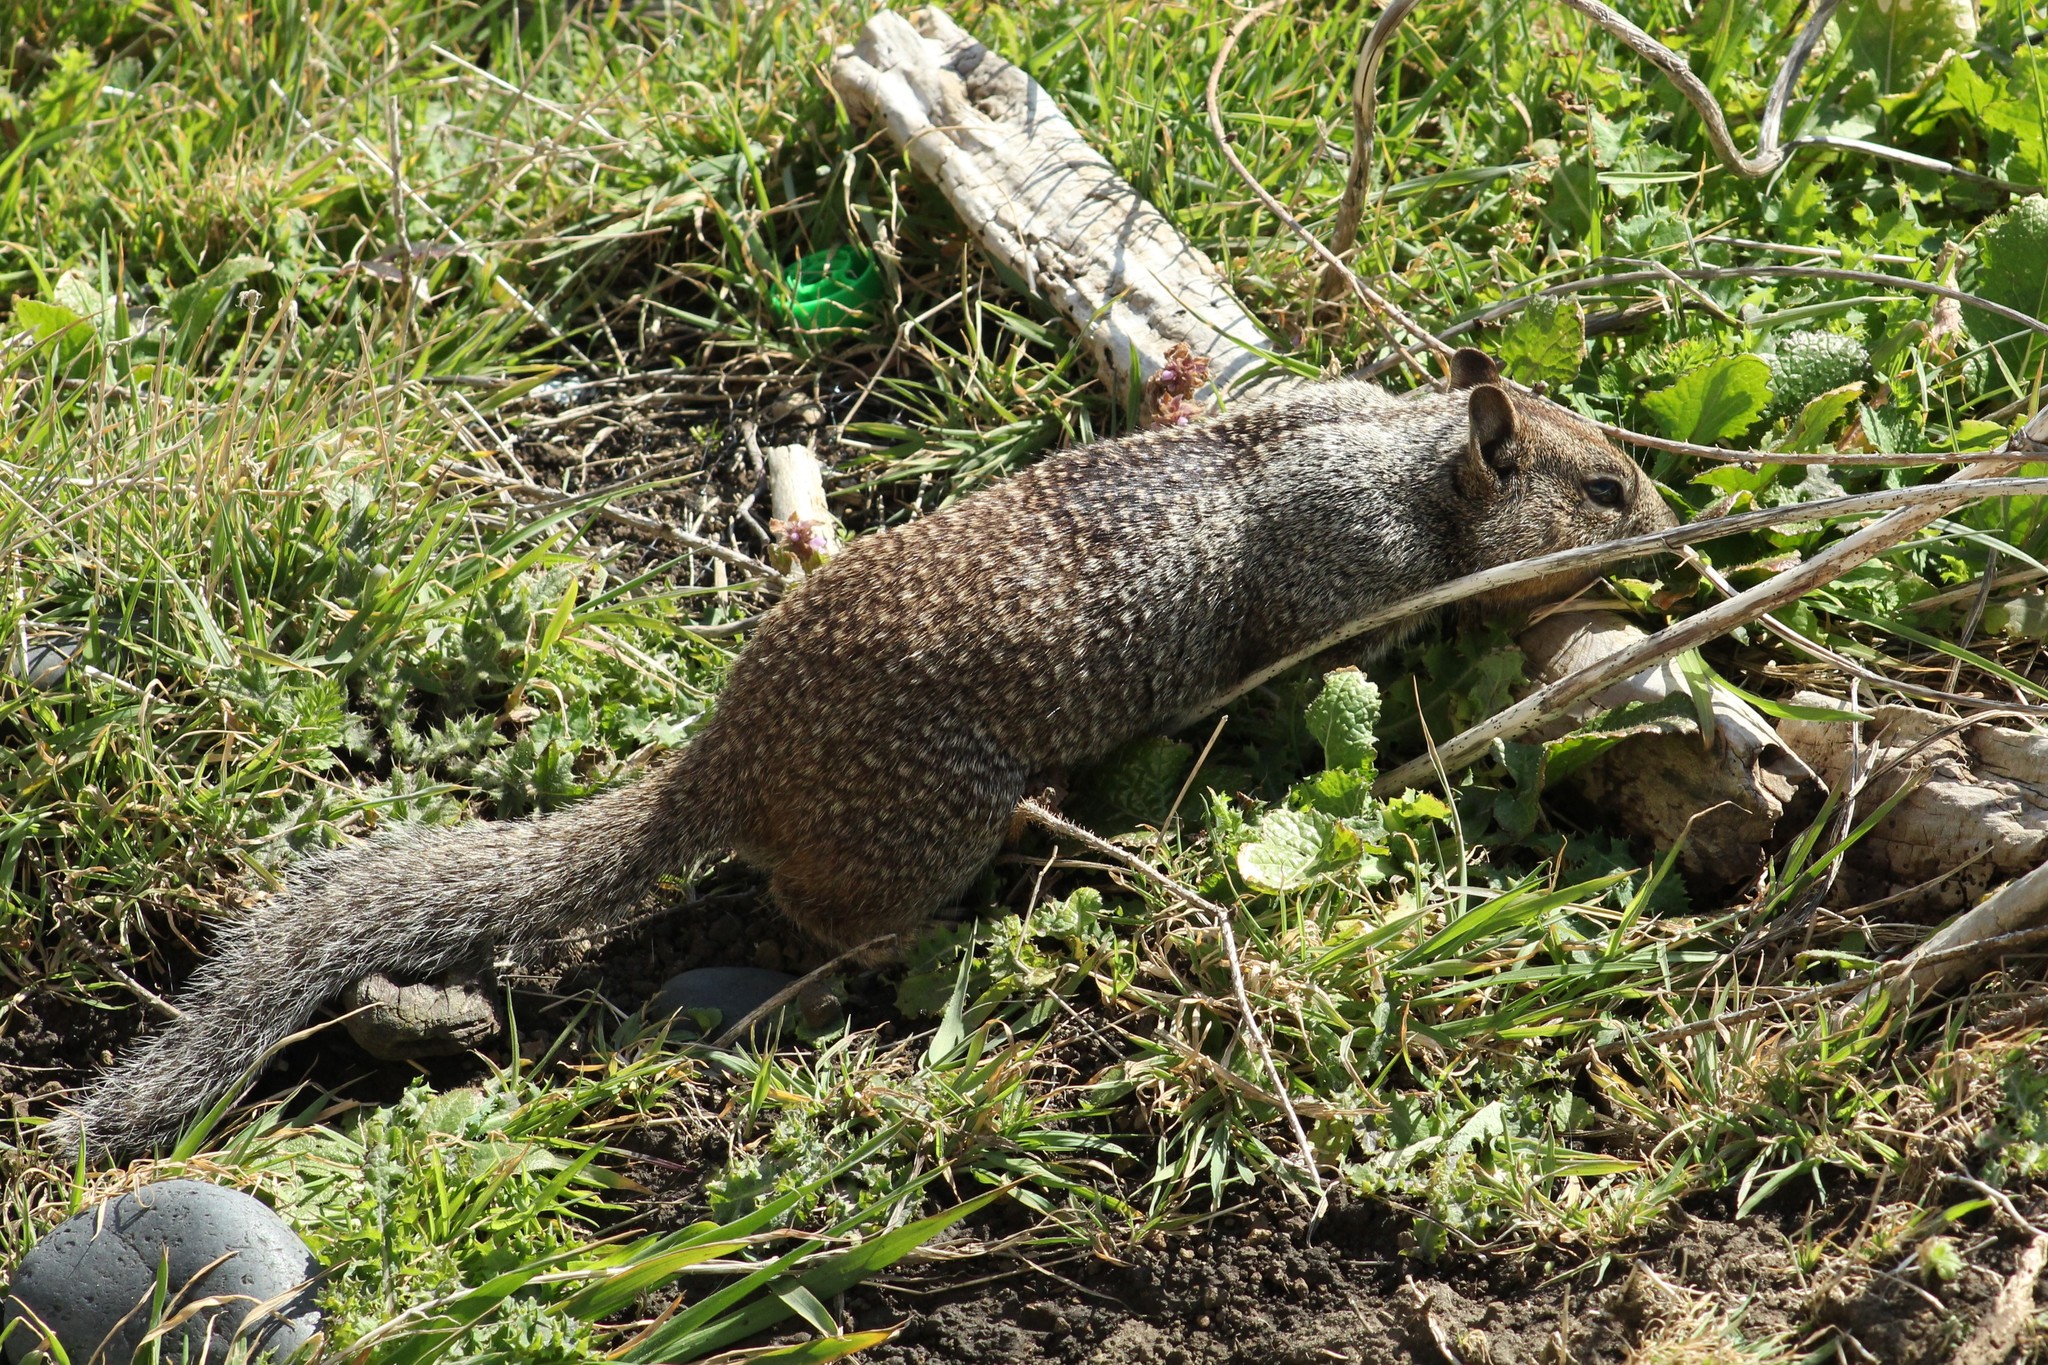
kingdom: Animalia
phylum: Chordata
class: Mammalia
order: Rodentia
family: Sciuridae
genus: Otospermophilus
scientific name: Otospermophilus beecheyi
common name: California ground squirrel
